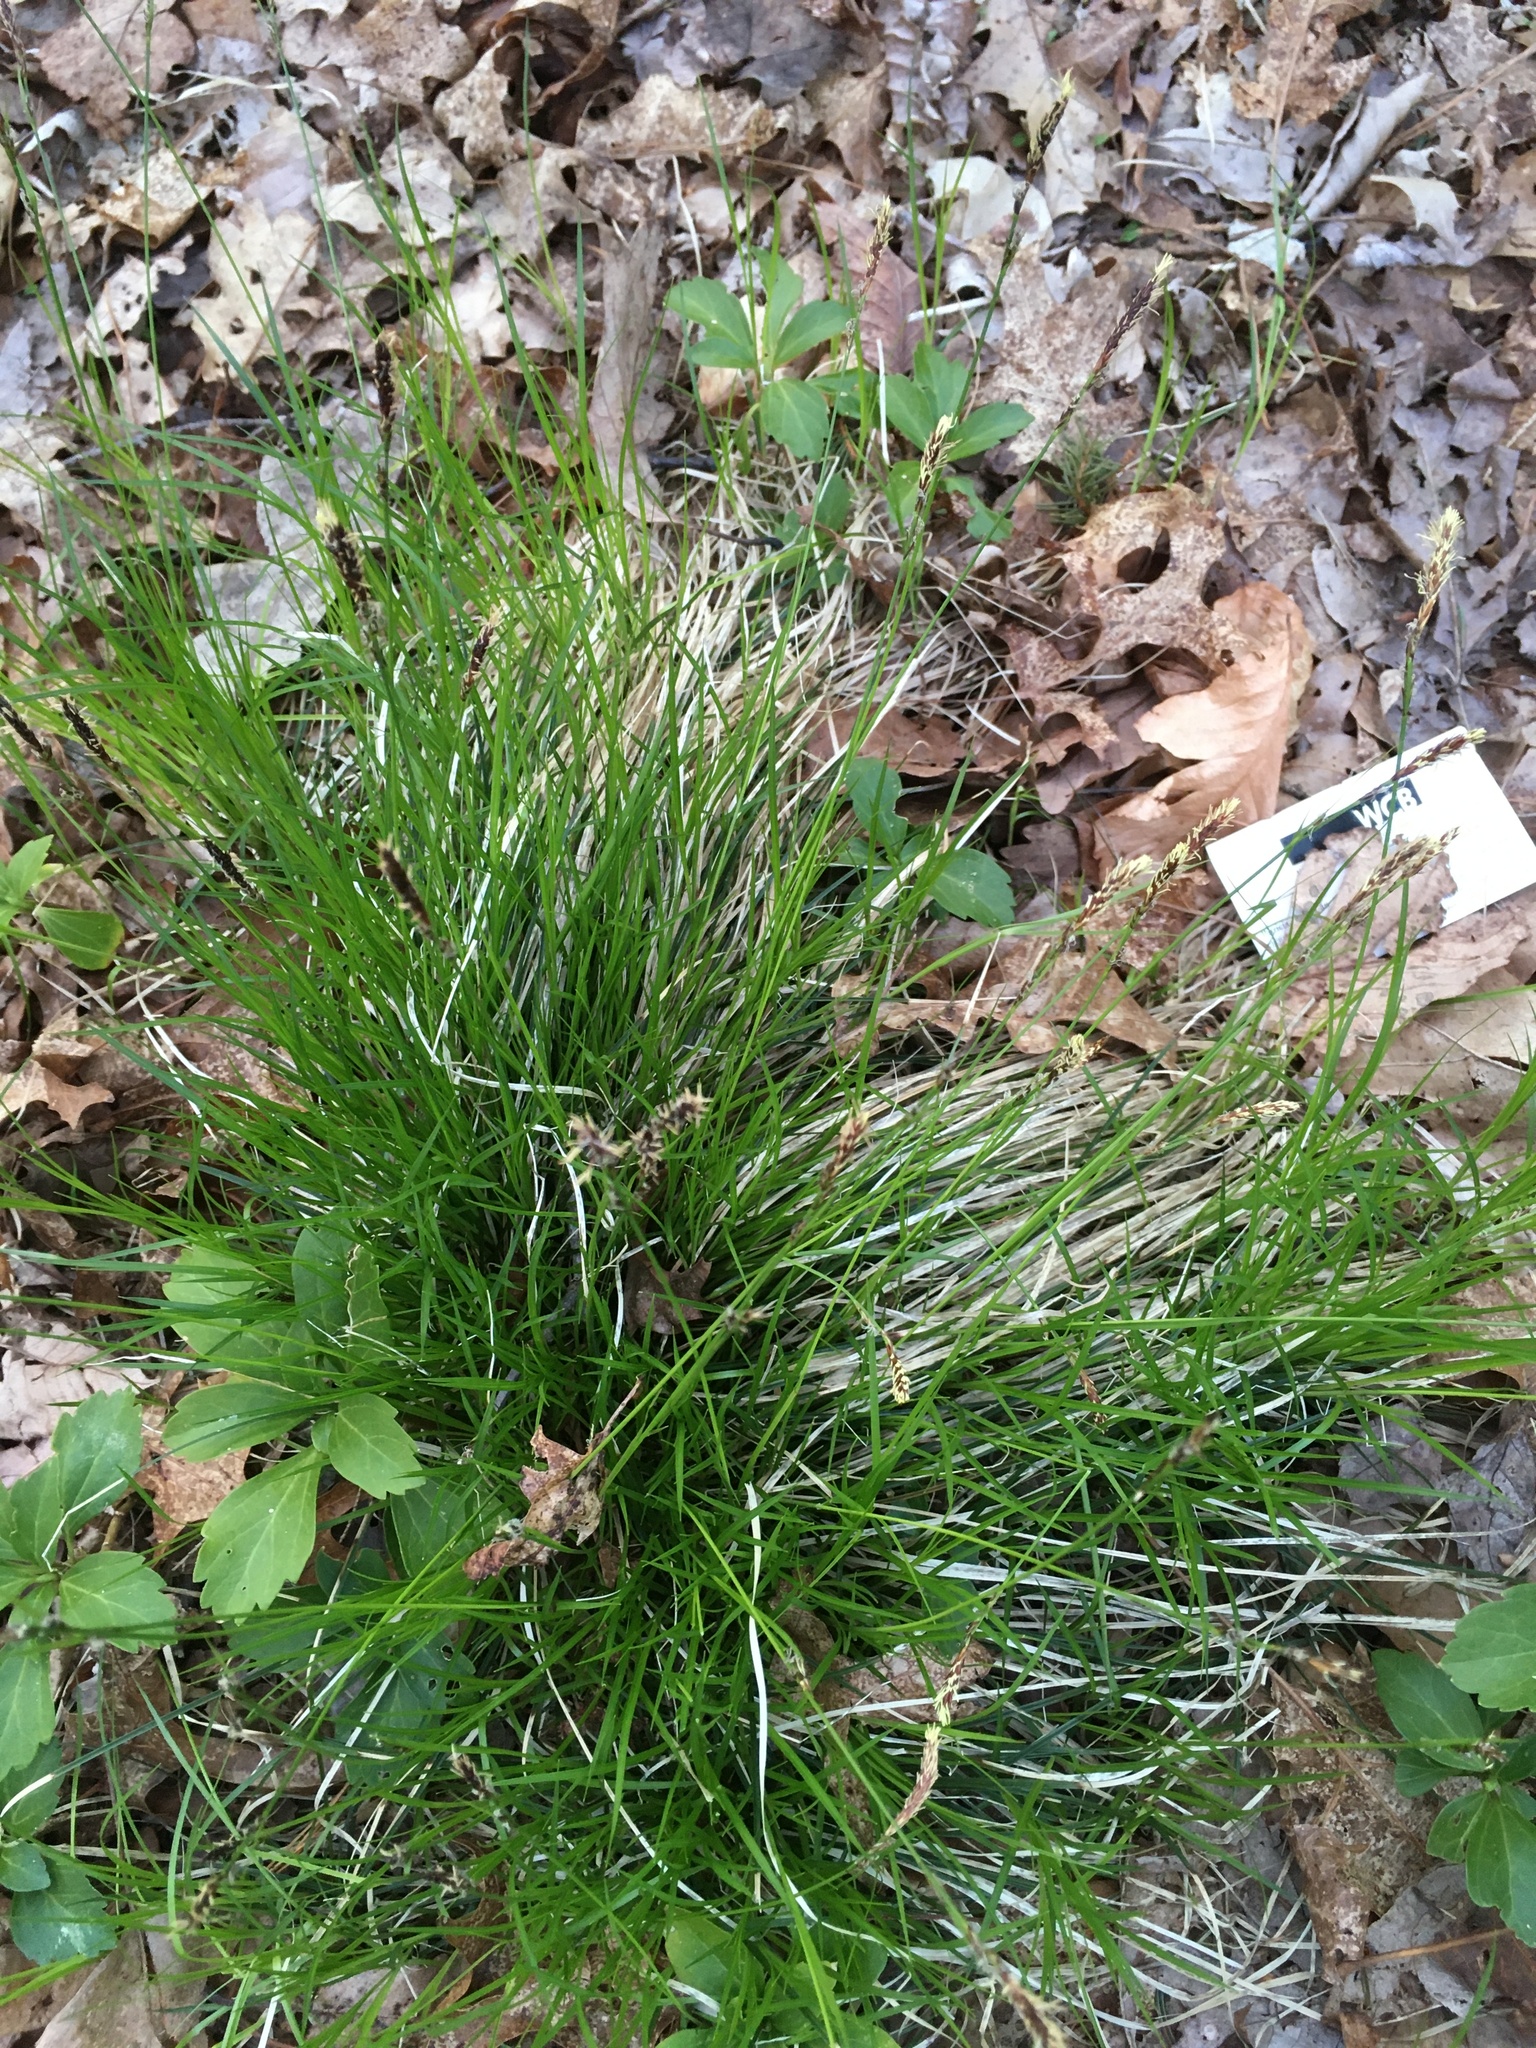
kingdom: Plantae
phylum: Tracheophyta
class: Liliopsida
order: Poales
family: Cyperaceae
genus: Carex
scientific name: Carex pensylvanica
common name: Common oak sedge
